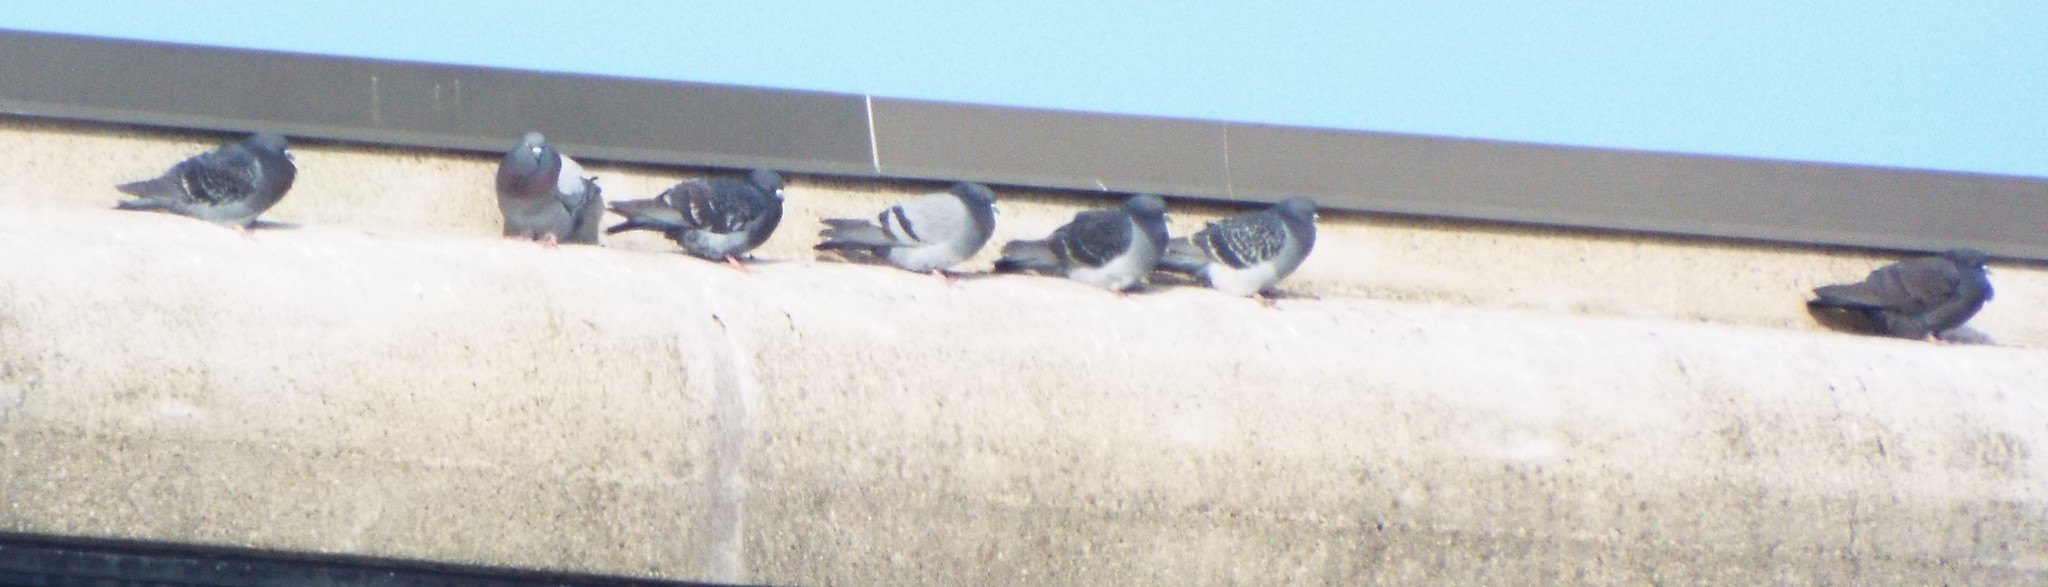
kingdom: Animalia
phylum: Chordata
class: Aves
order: Columbiformes
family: Columbidae
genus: Columba
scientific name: Columba livia
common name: Rock pigeon
